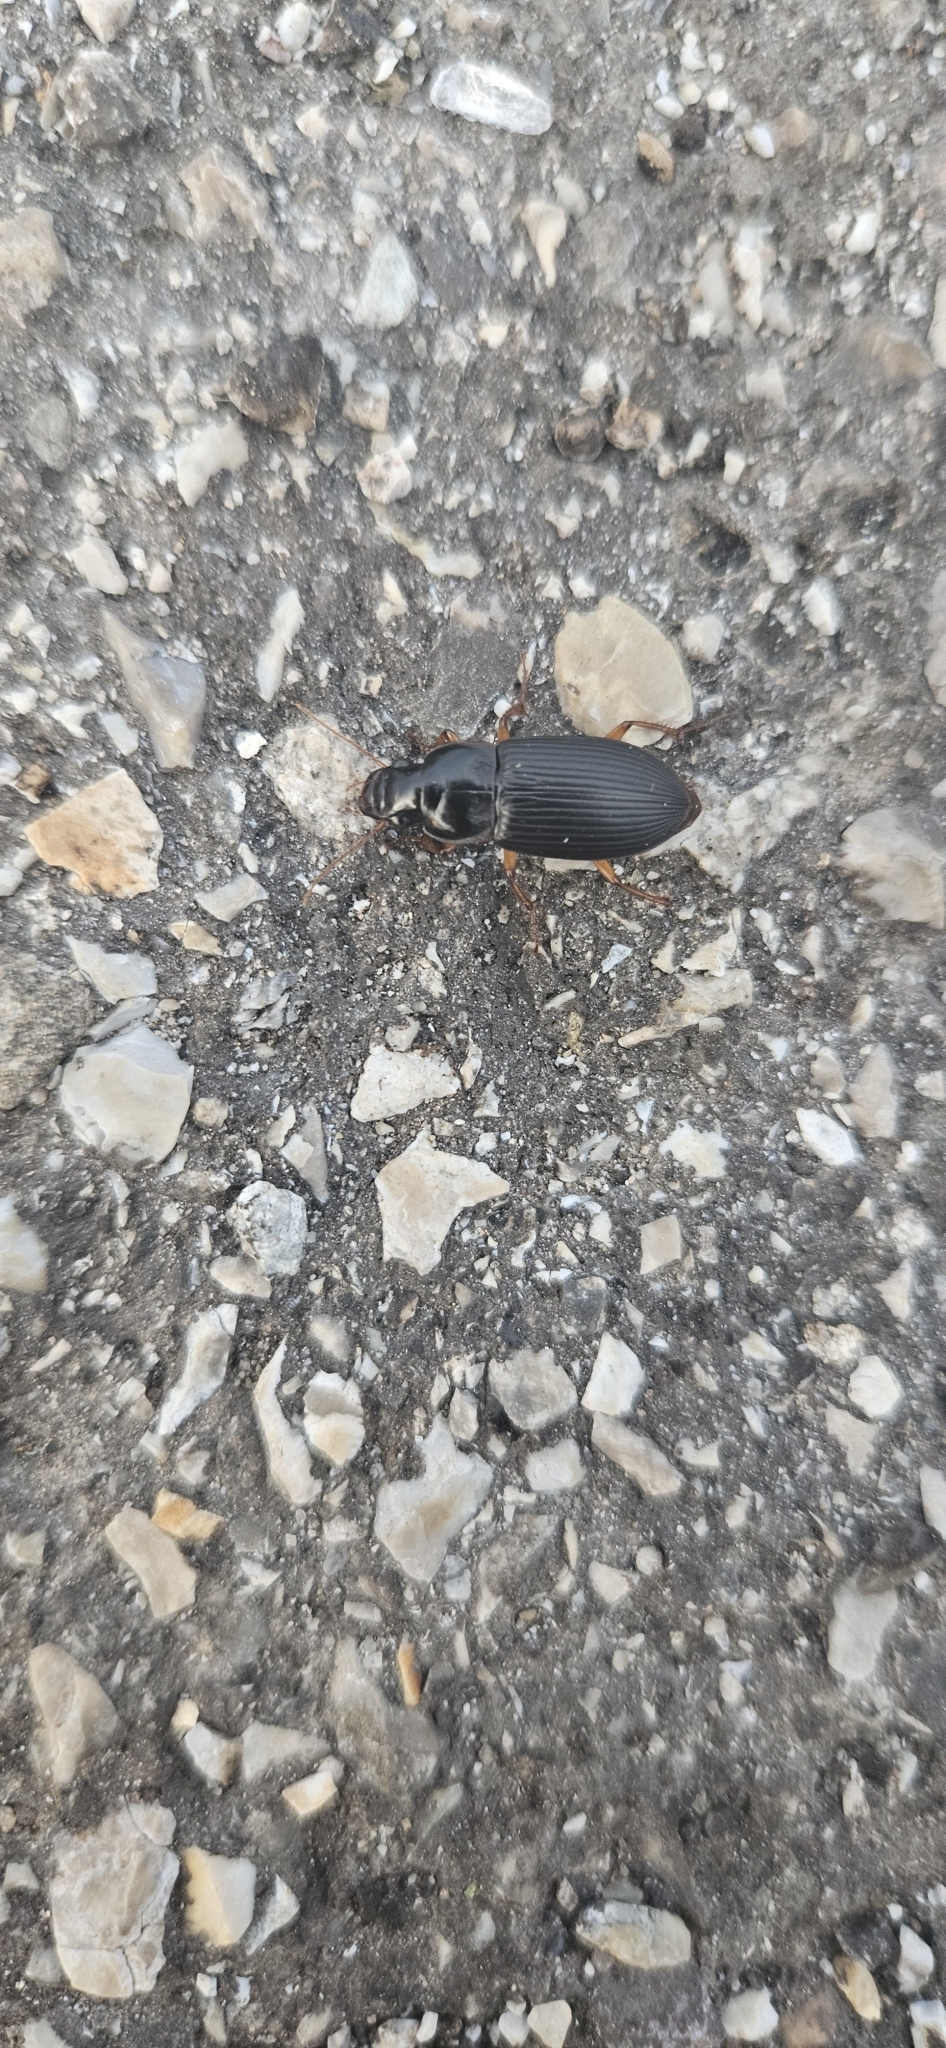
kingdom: Animalia
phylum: Arthropoda
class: Insecta
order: Coleoptera
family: Carabidae
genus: Harpalus
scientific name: Harpalus pensylvanicus
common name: Pennsylvania dingy ground beetle
